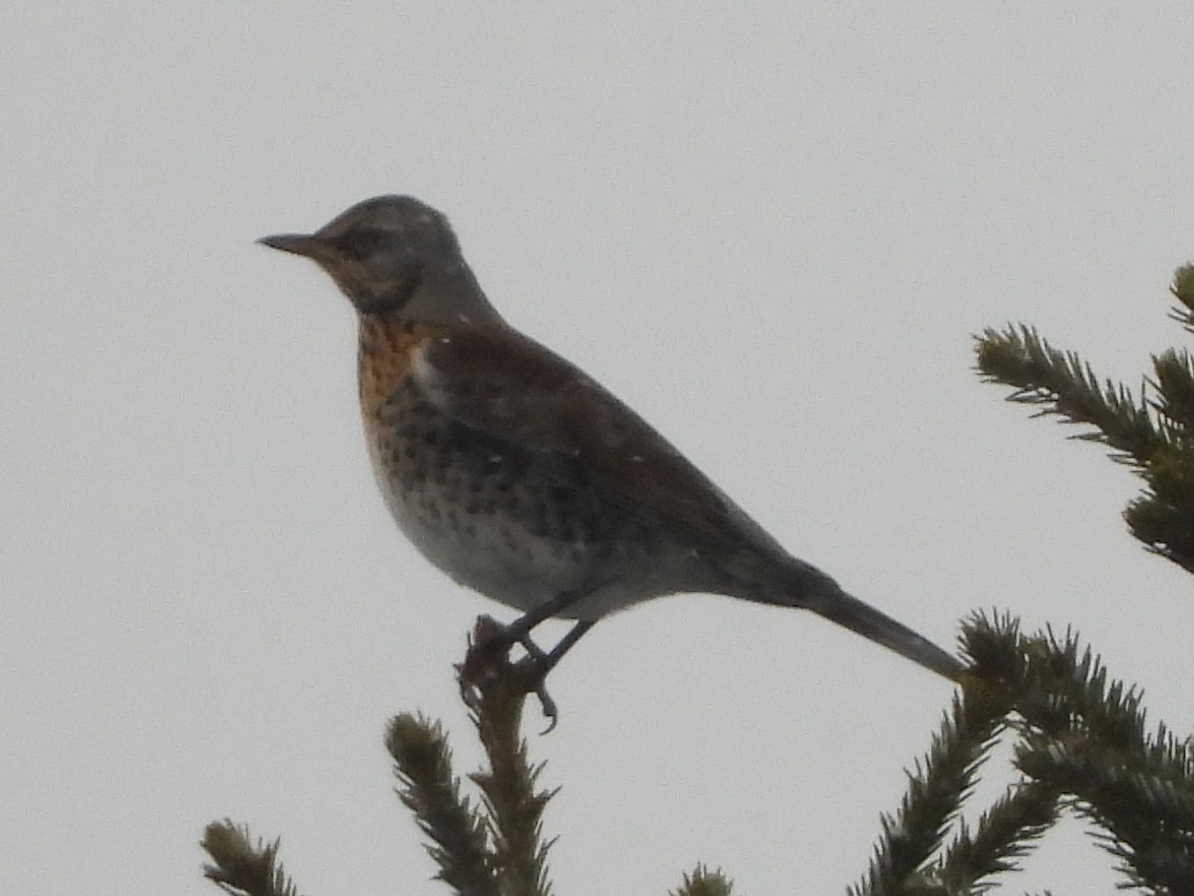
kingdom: Animalia
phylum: Chordata
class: Aves
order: Passeriformes
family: Turdidae
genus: Turdus
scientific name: Turdus pilaris
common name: Fieldfare
